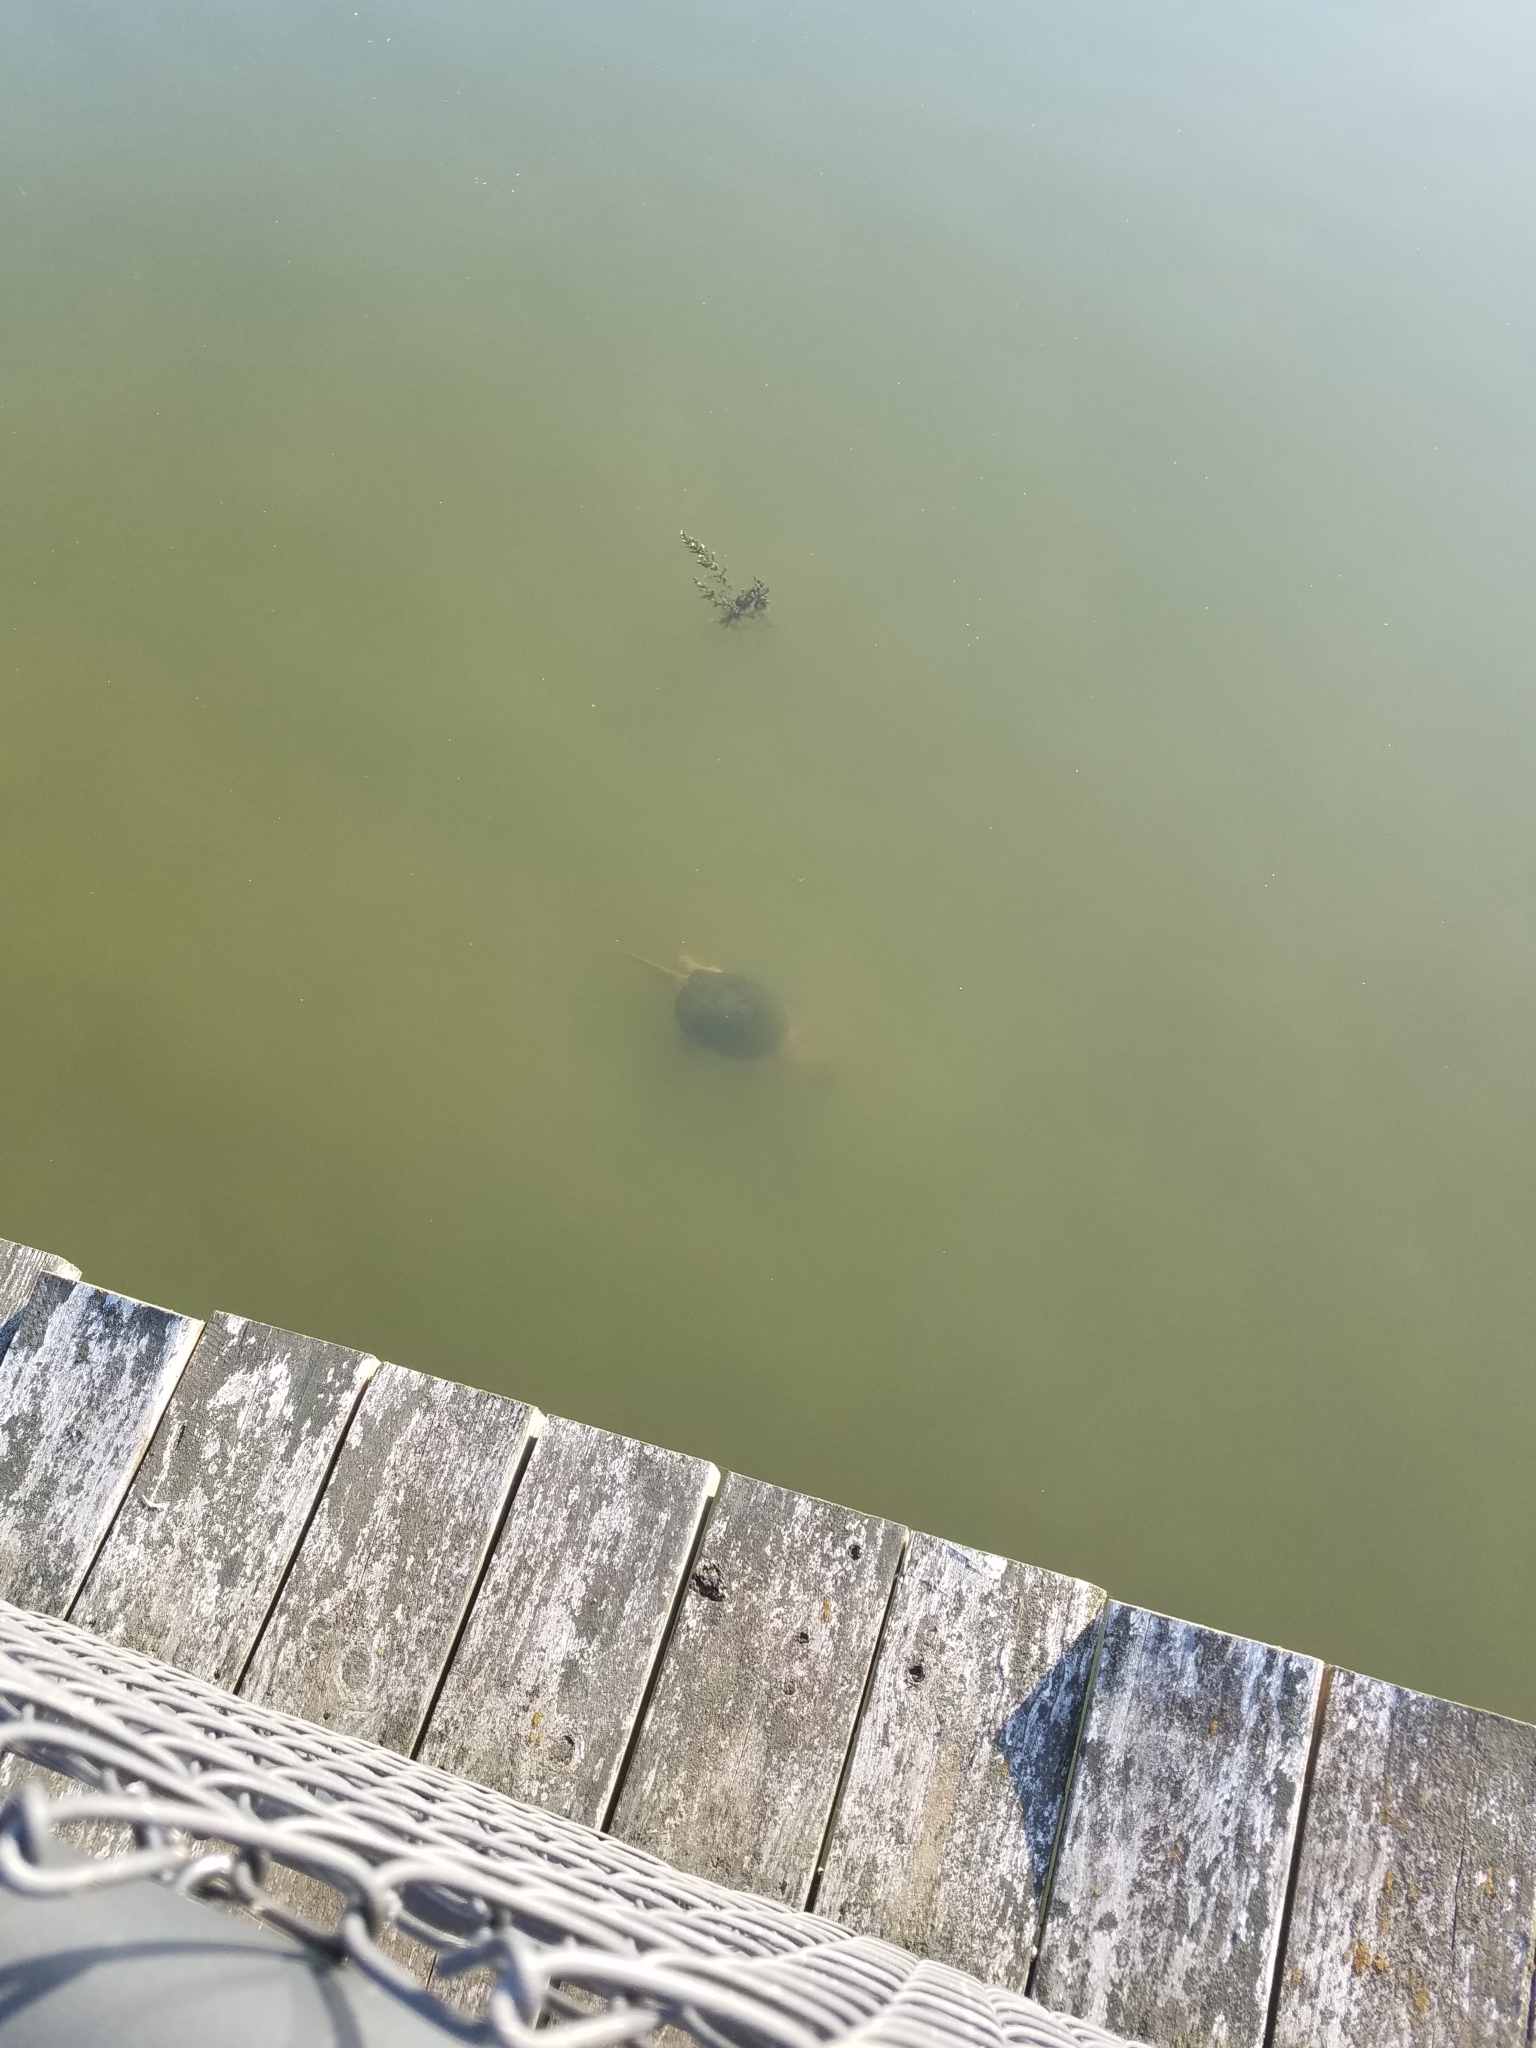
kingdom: Animalia
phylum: Chordata
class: Testudines
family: Chelydridae
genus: Chelydra
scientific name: Chelydra serpentina
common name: Common snapping turtle
